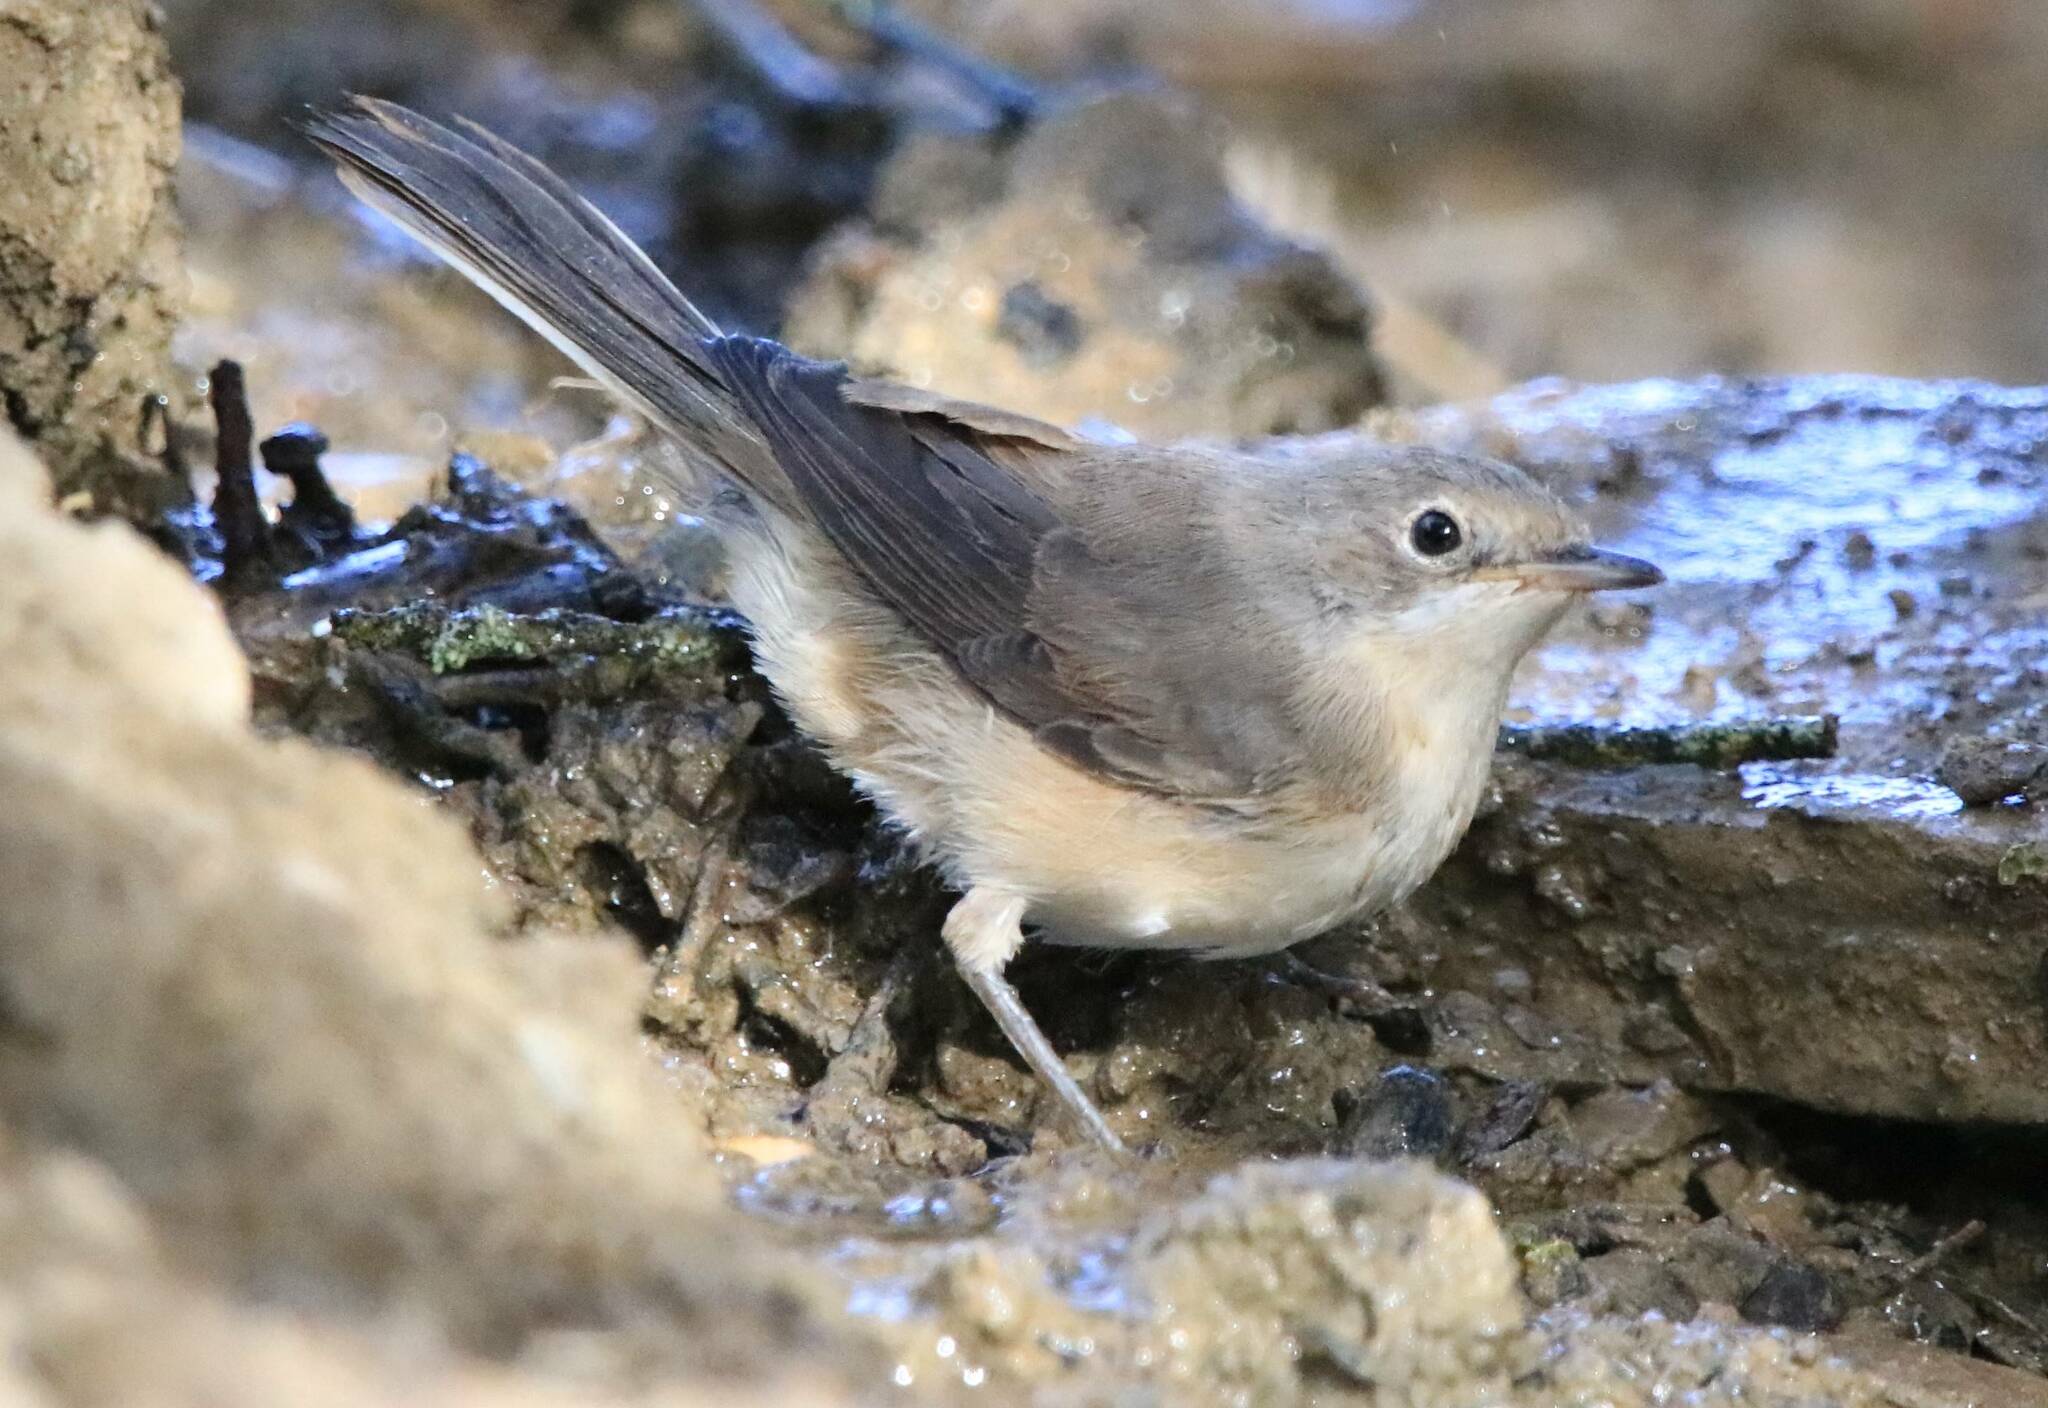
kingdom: Animalia
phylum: Chordata
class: Aves
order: Passeriformes
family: Sylviidae
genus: Curruca
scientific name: Curruca subalpina
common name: Moltoni's warbler
